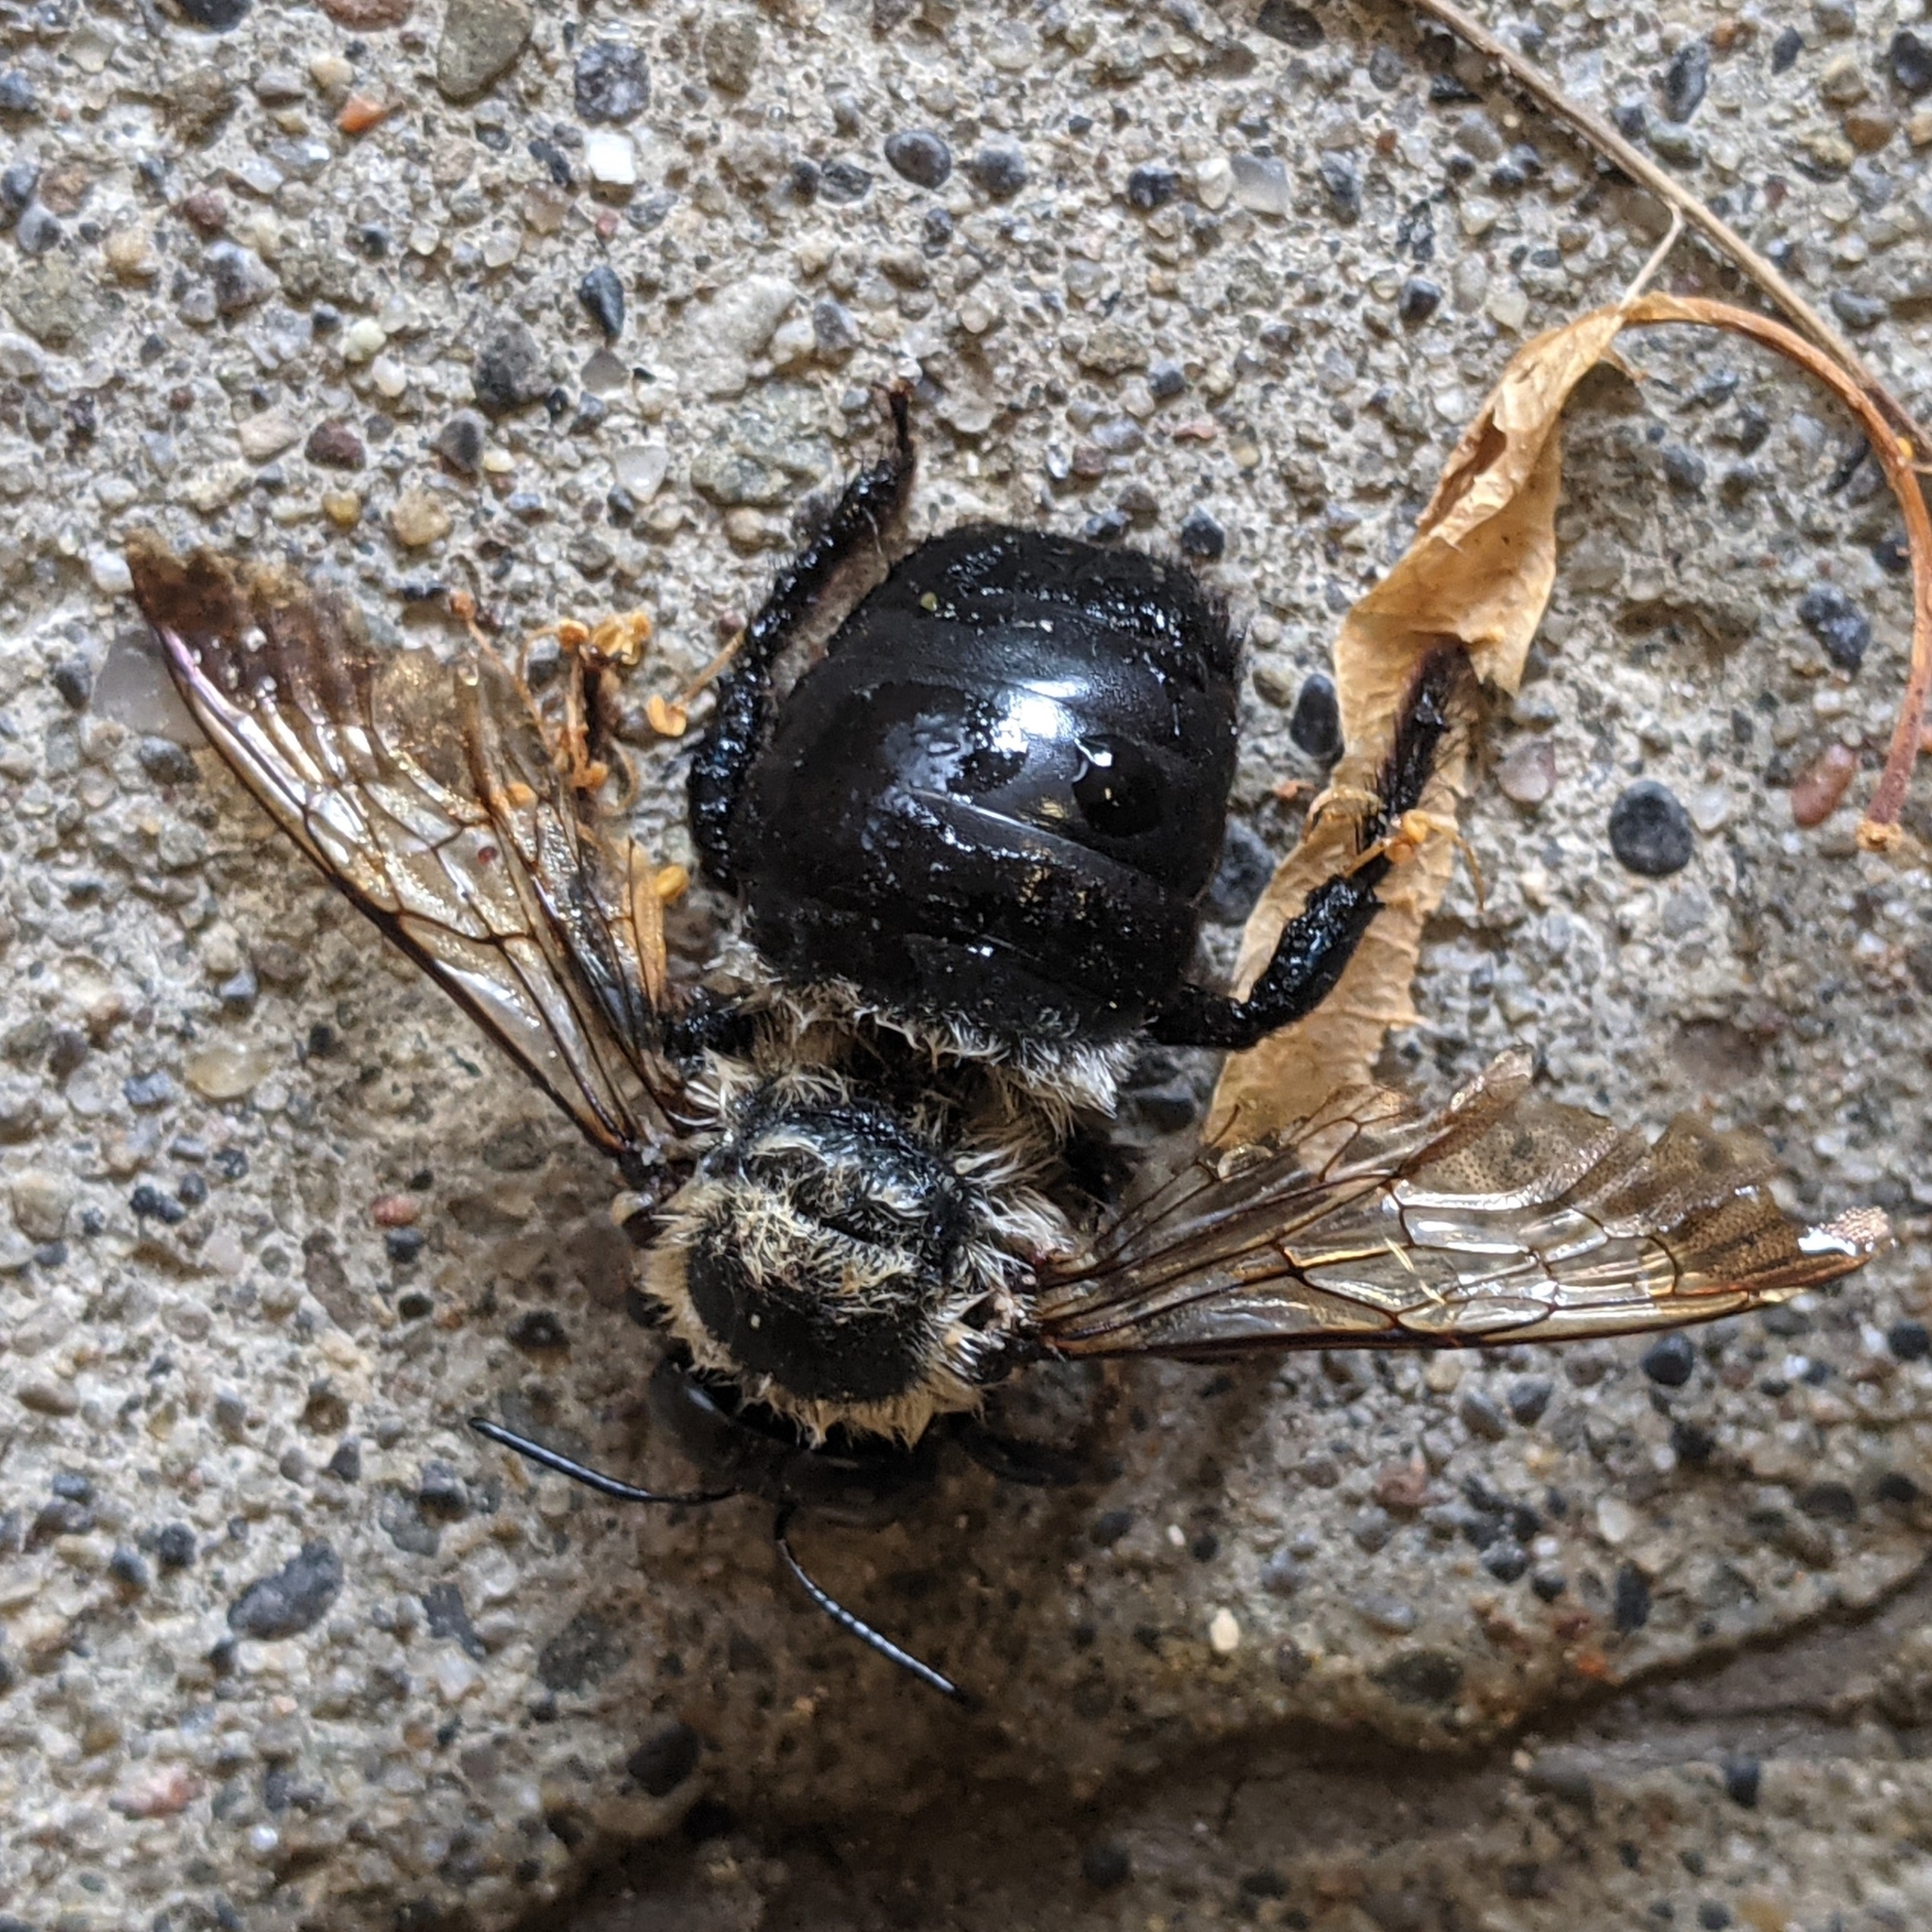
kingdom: Animalia
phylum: Arthropoda
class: Insecta
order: Hymenoptera
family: Apidae
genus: Xylocopa
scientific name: Xylocopa virginica
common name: Carpenter bee
